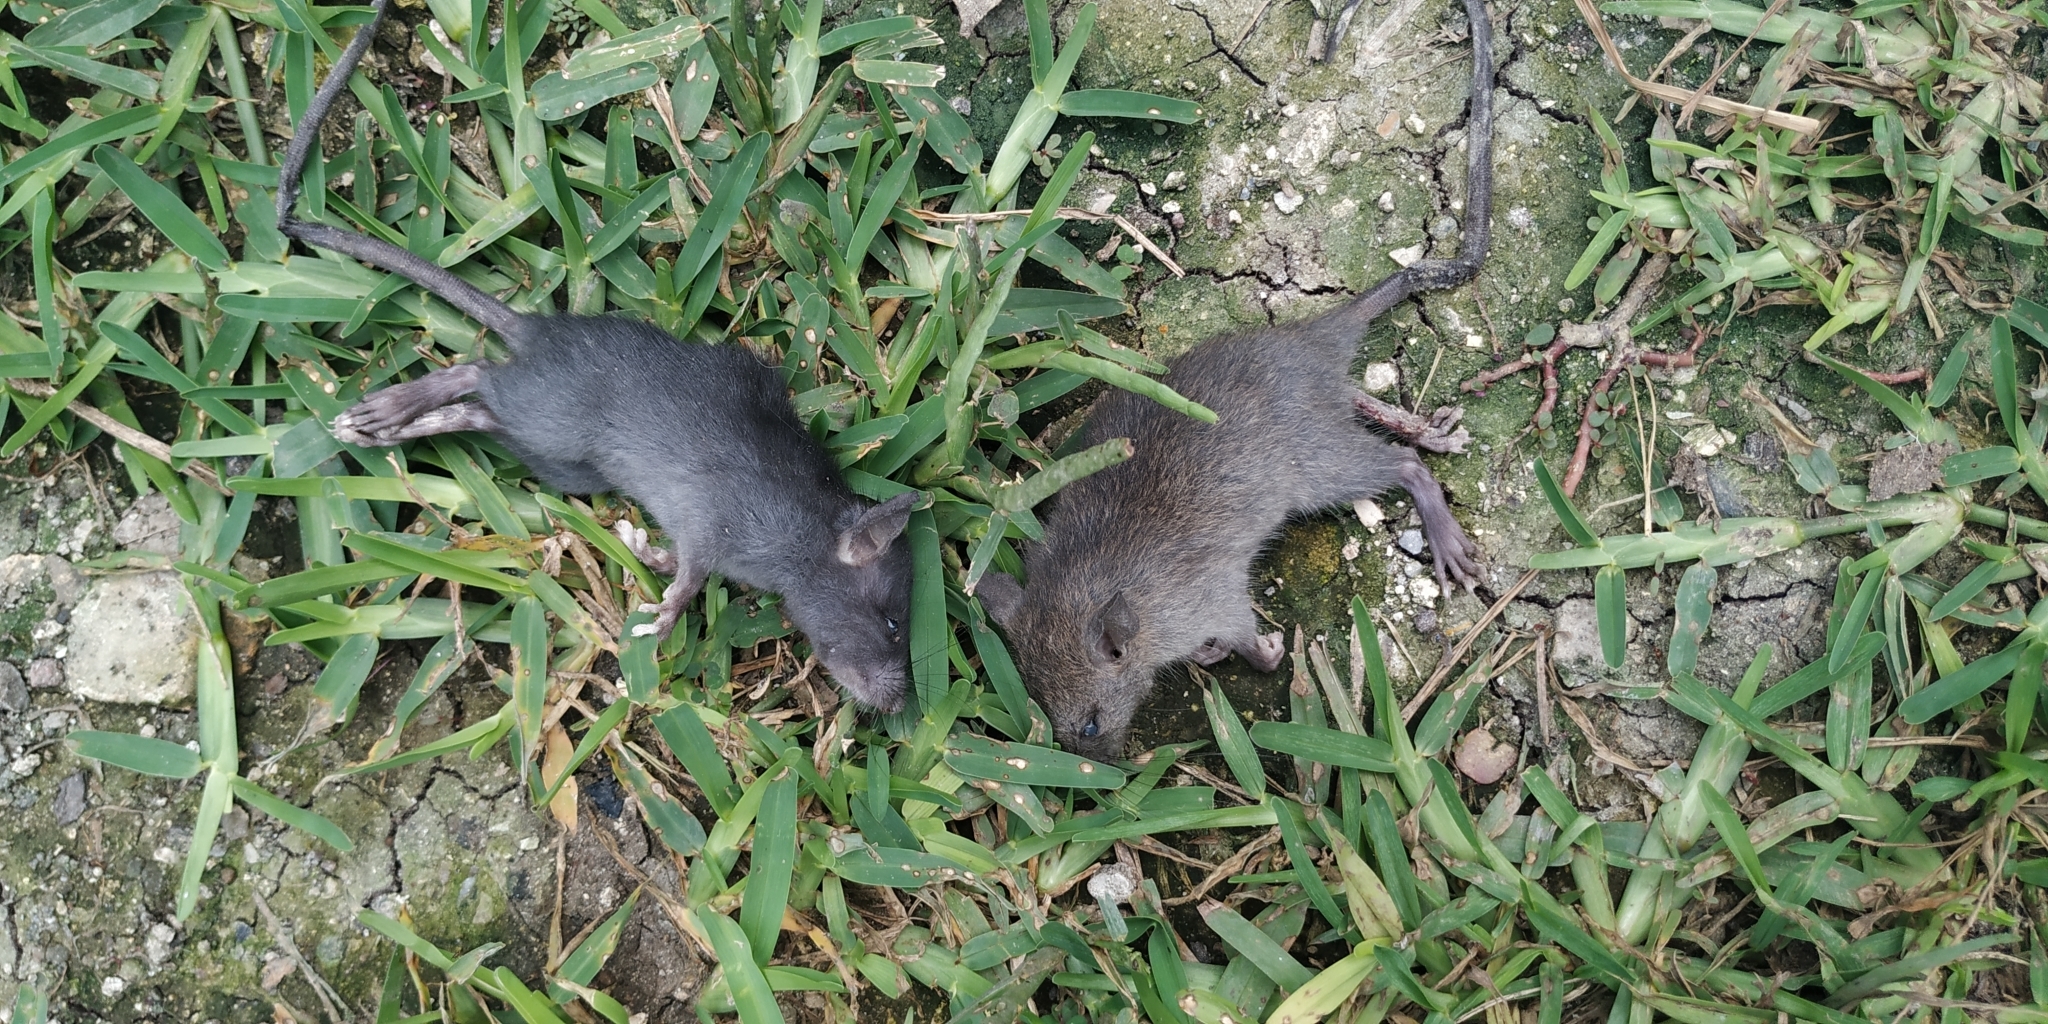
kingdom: Animalia
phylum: Chordata
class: Mammalia
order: Rodentia
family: Muridae
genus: Rattus
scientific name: Rattus rattus
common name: Black rat
